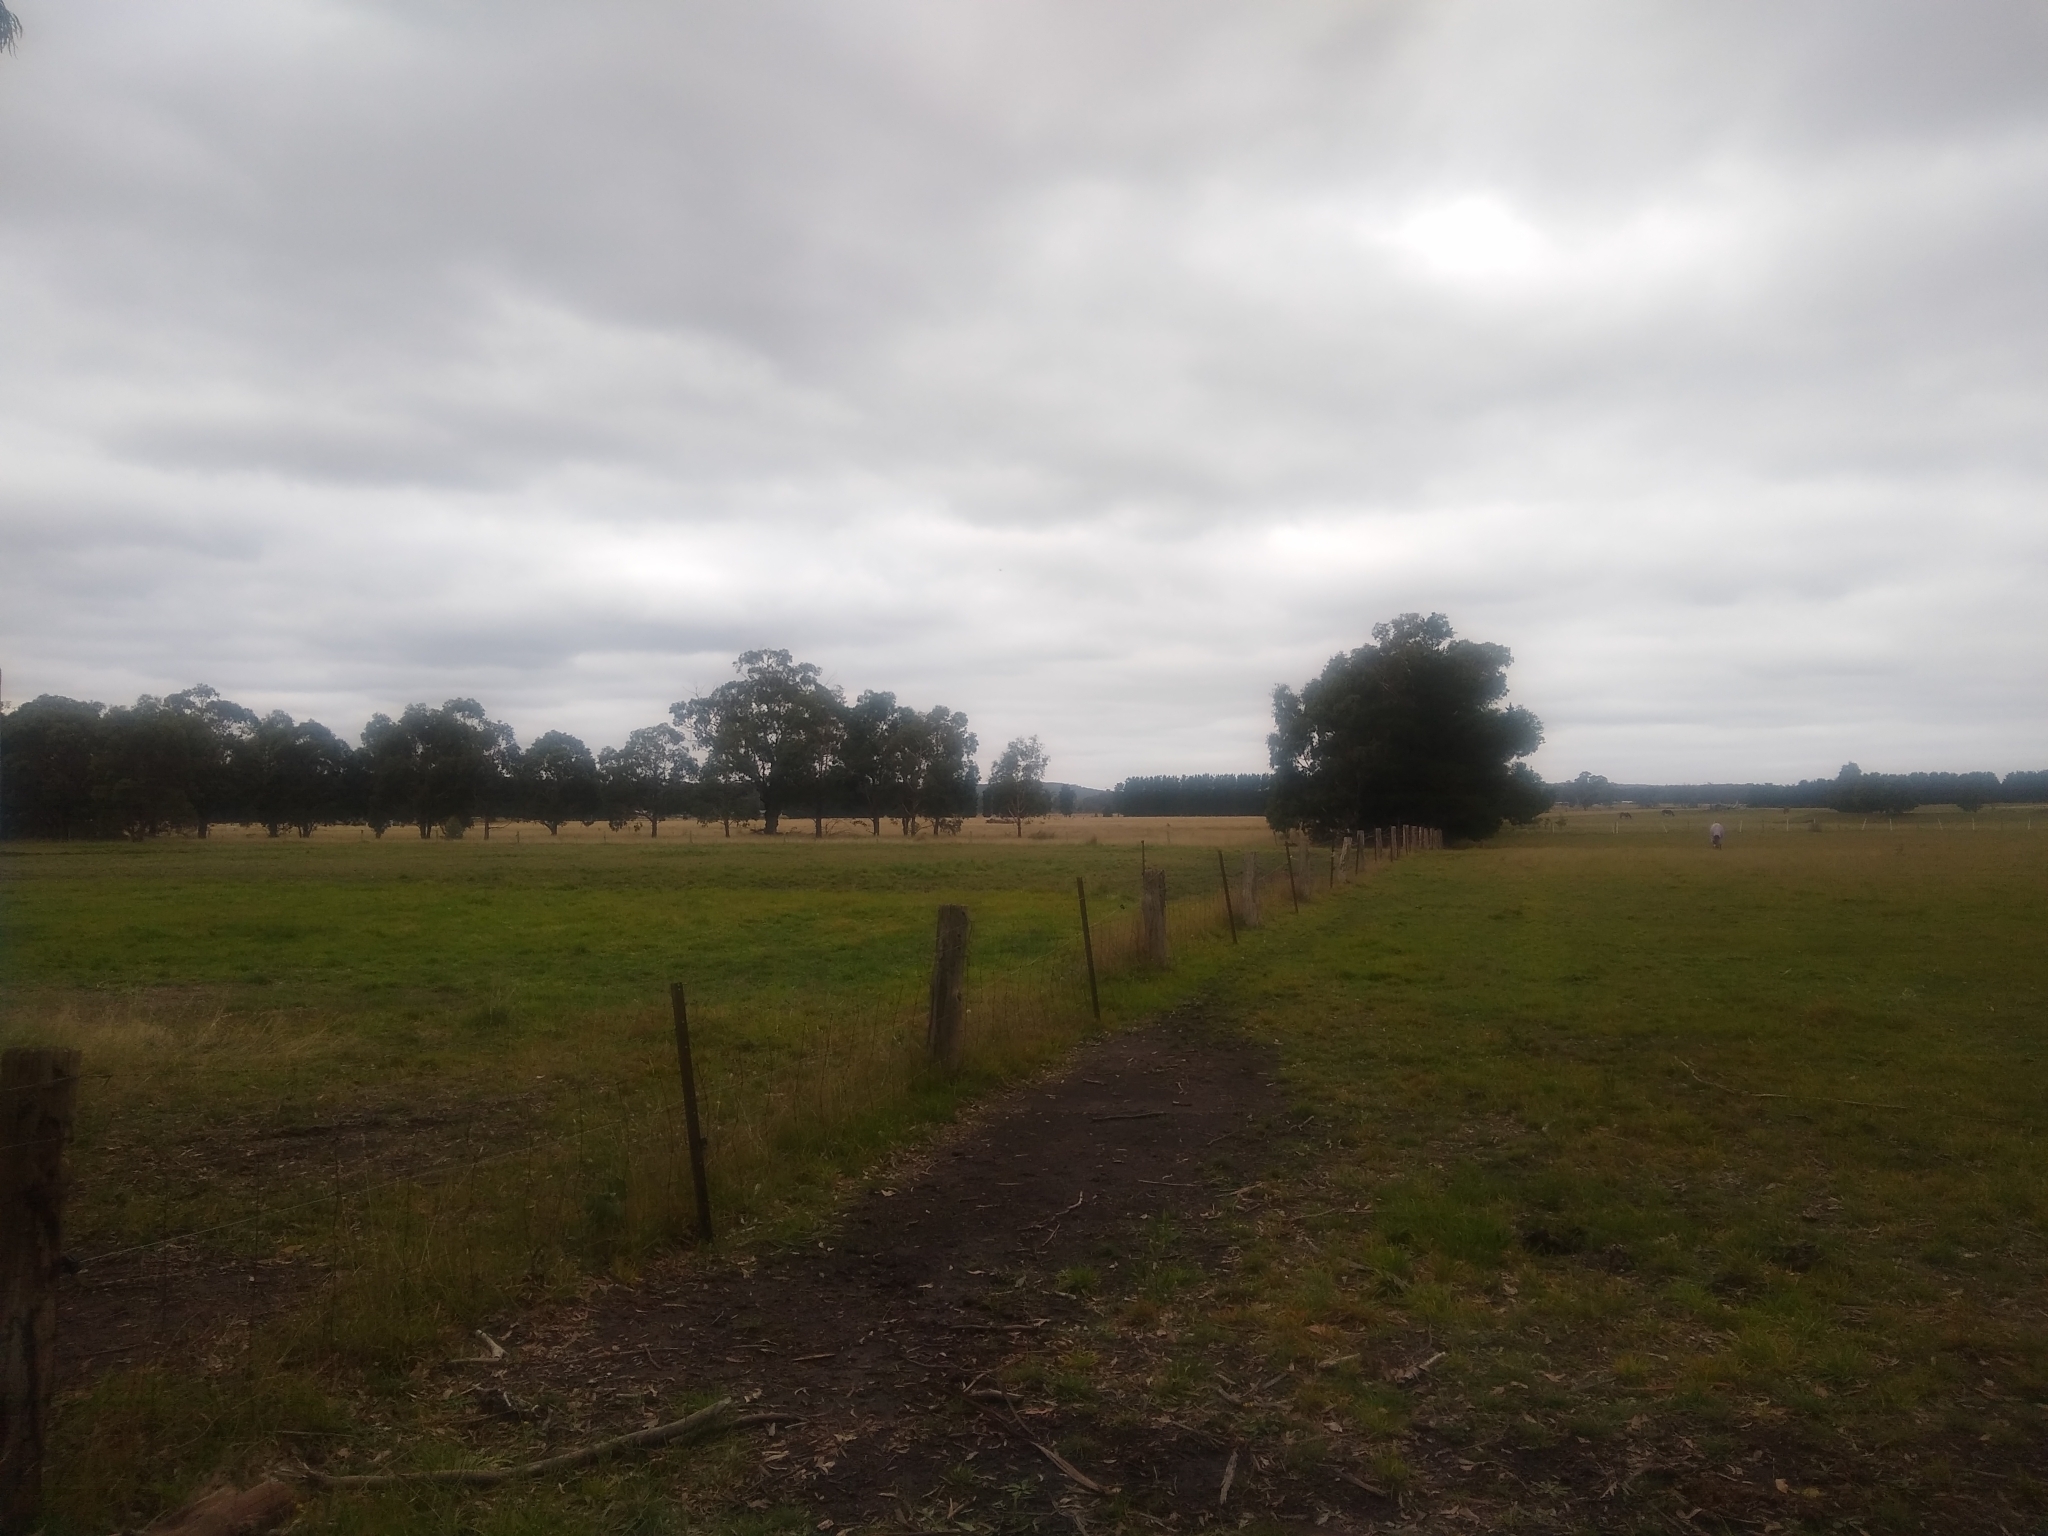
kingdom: Animalia
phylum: Chordata
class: Mammalia
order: Diprotodontia
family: Macropodidae
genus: Macropus
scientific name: Macropus giganteus
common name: Eastern grey kangaroo
